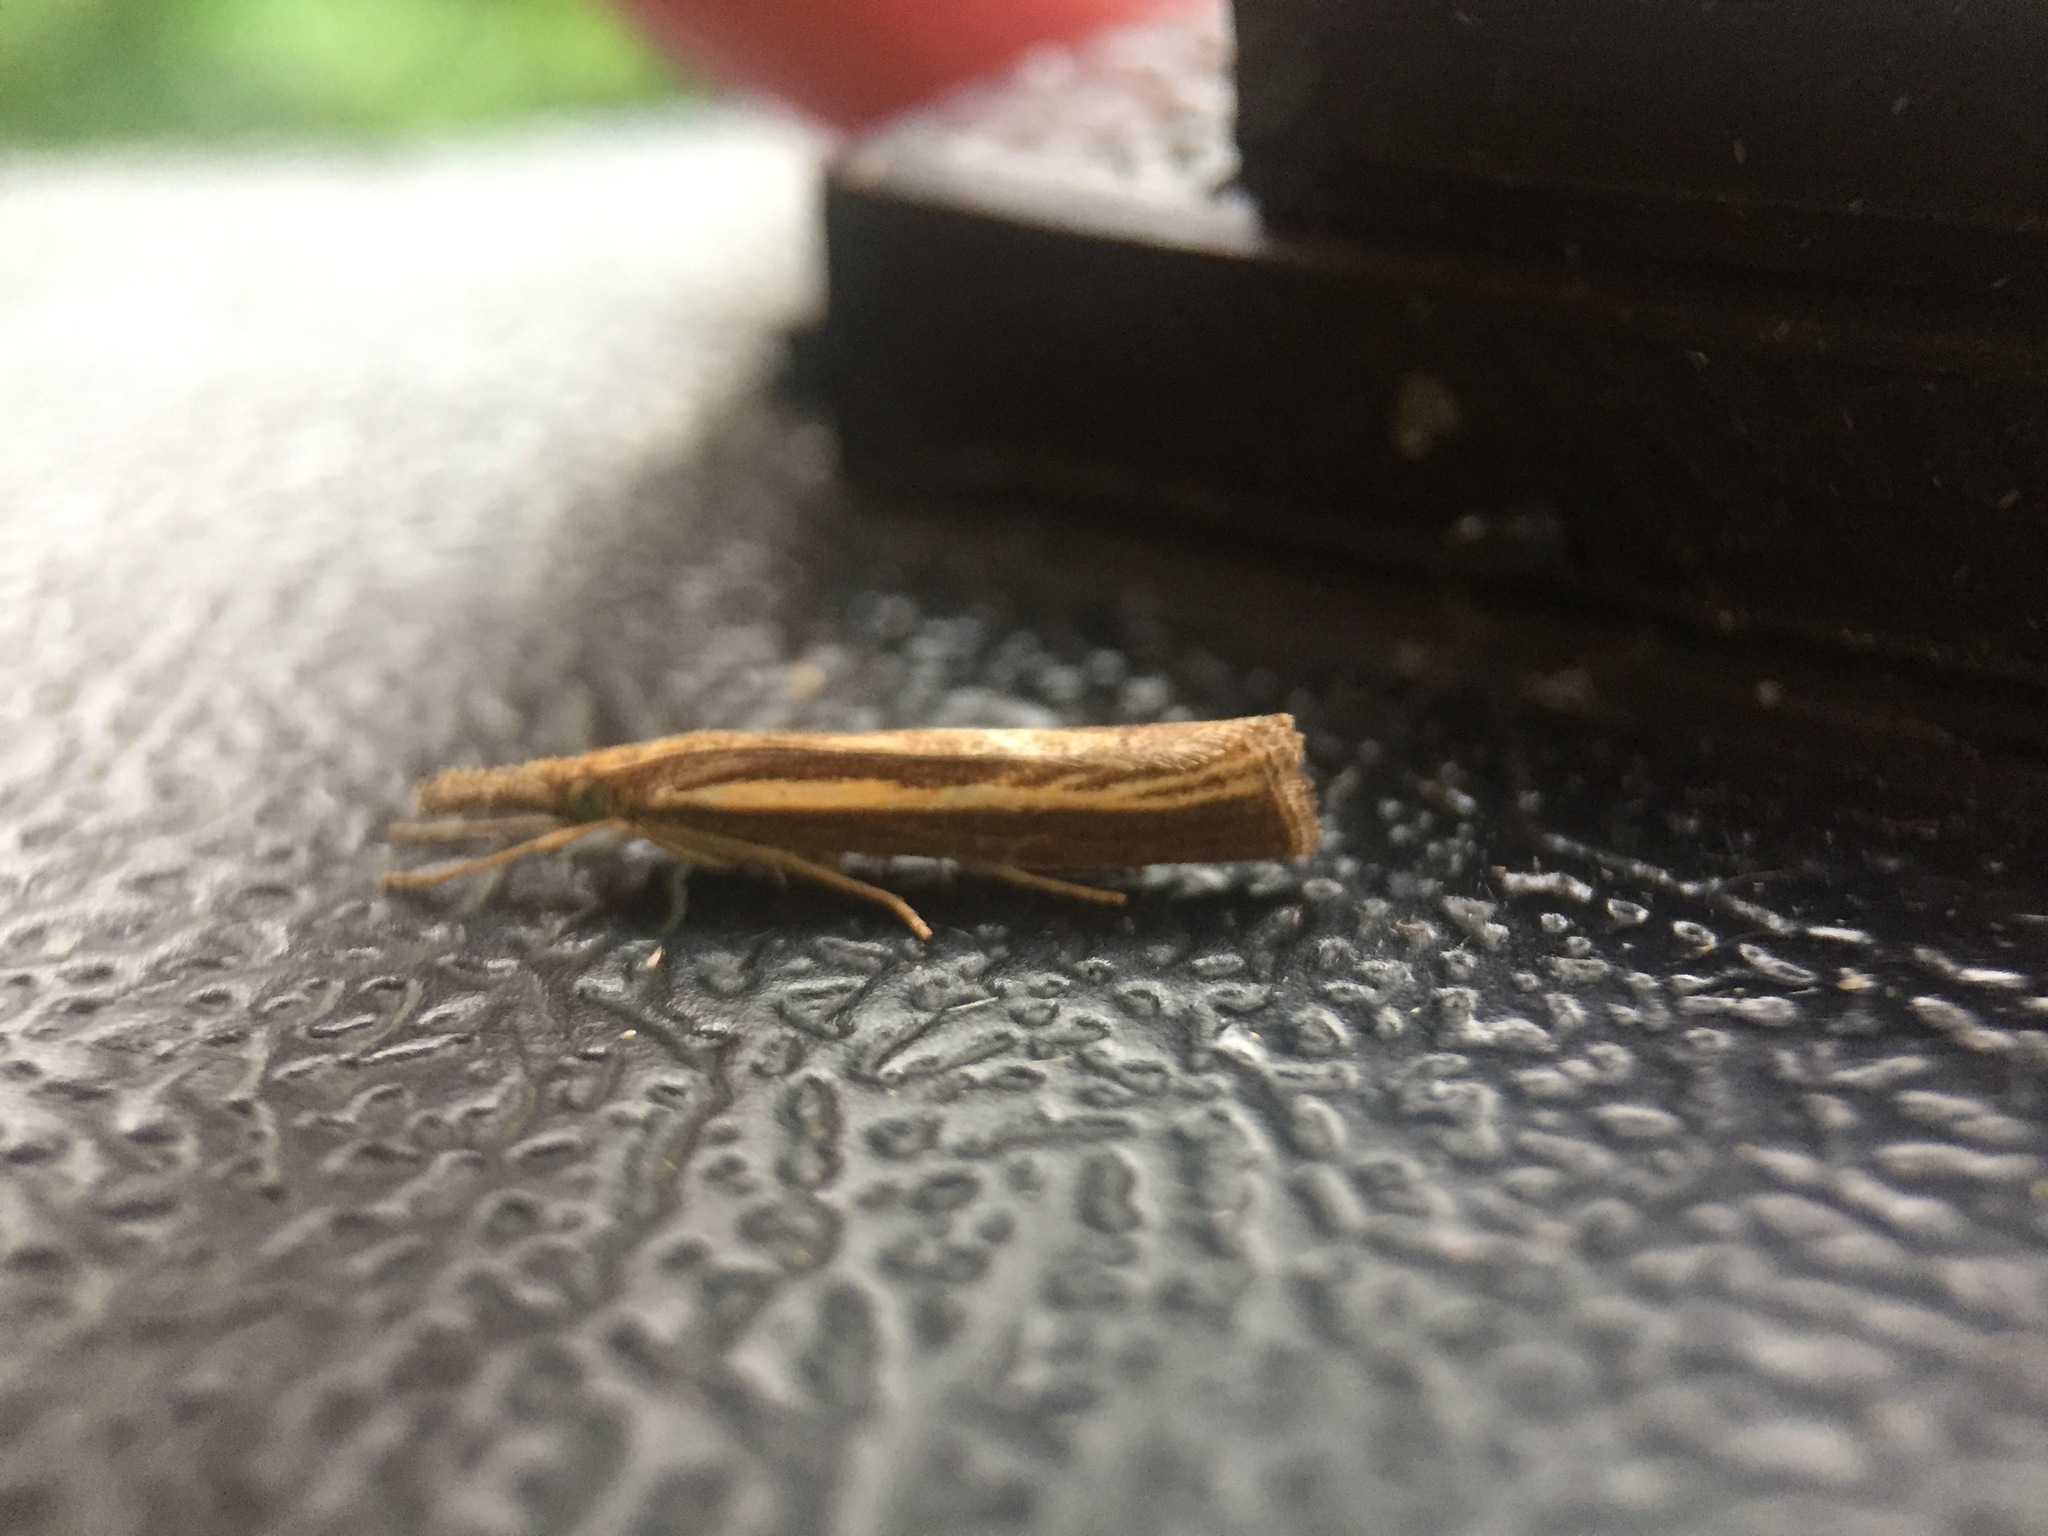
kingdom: Animalia
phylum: Arthropoda
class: Insecta
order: Lepidoptera
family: Crambidae
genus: Agriphila
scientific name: Agriphila tristellus
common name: Common grass-veneer
